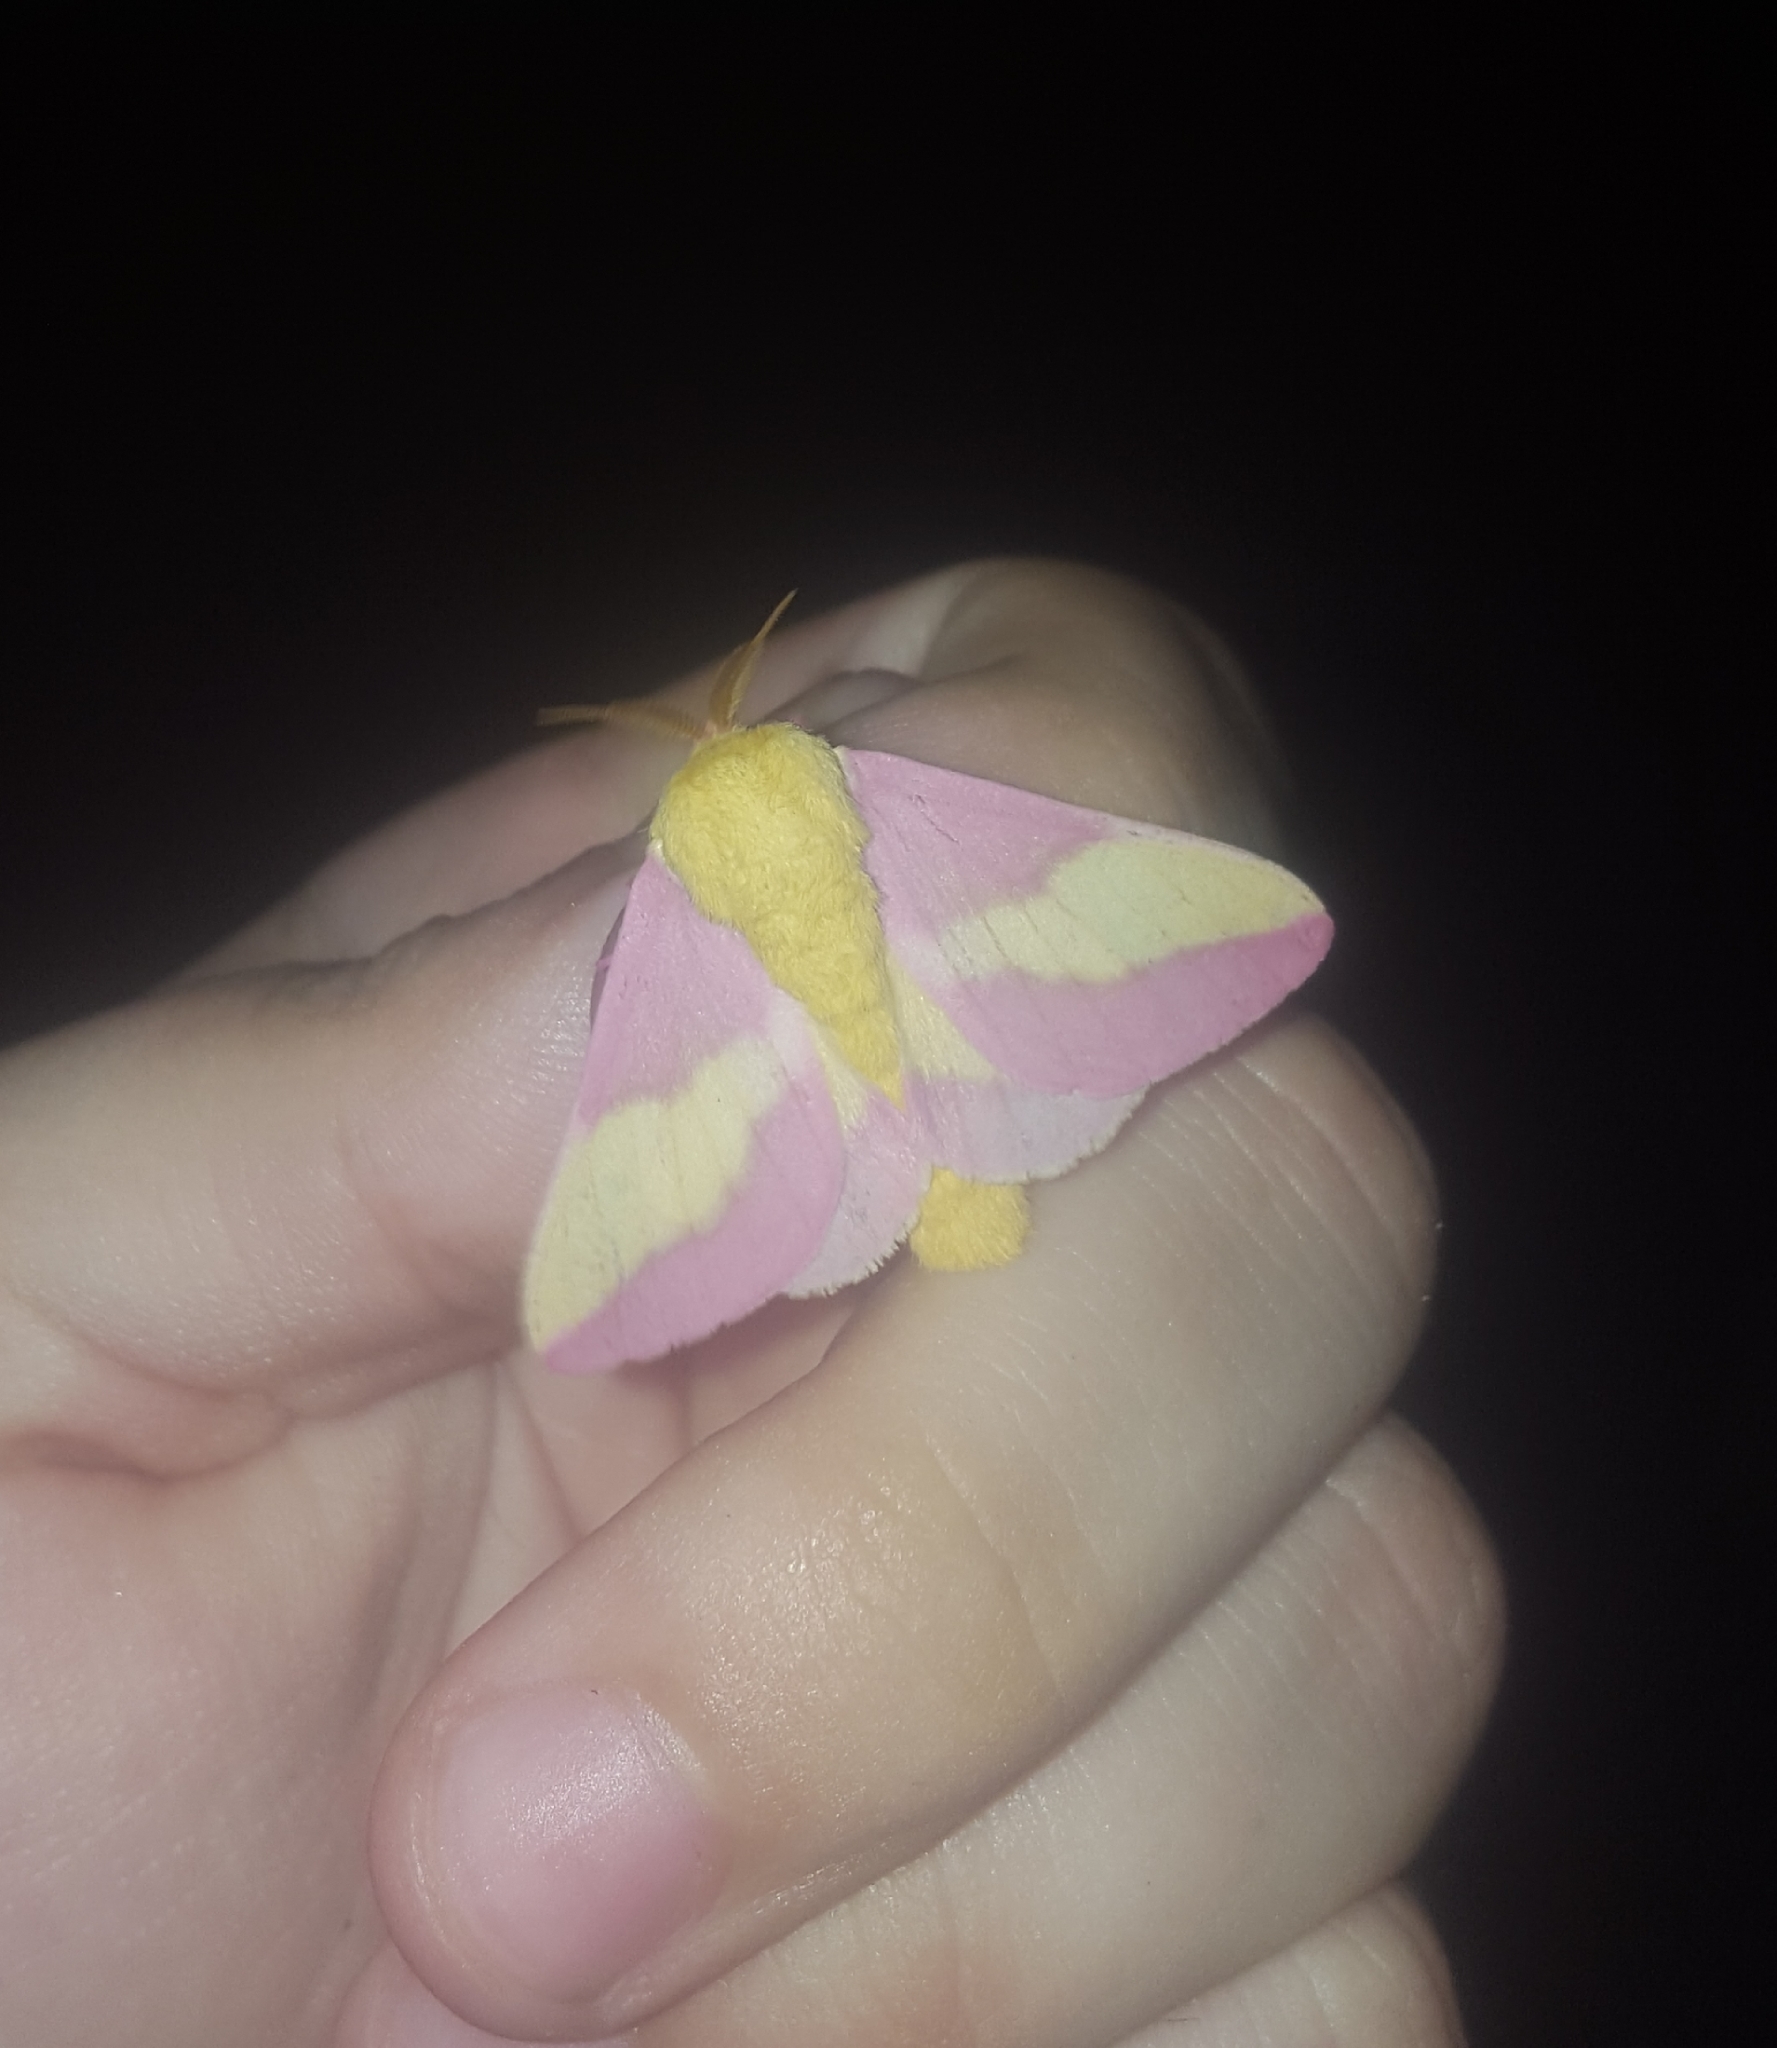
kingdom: Animalia
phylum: Arthropoda
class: Insecta
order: Lepidoptera
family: Saturniidae
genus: Dryocampa
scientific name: Dryocampa rubicunda
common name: Rosy maple moth
